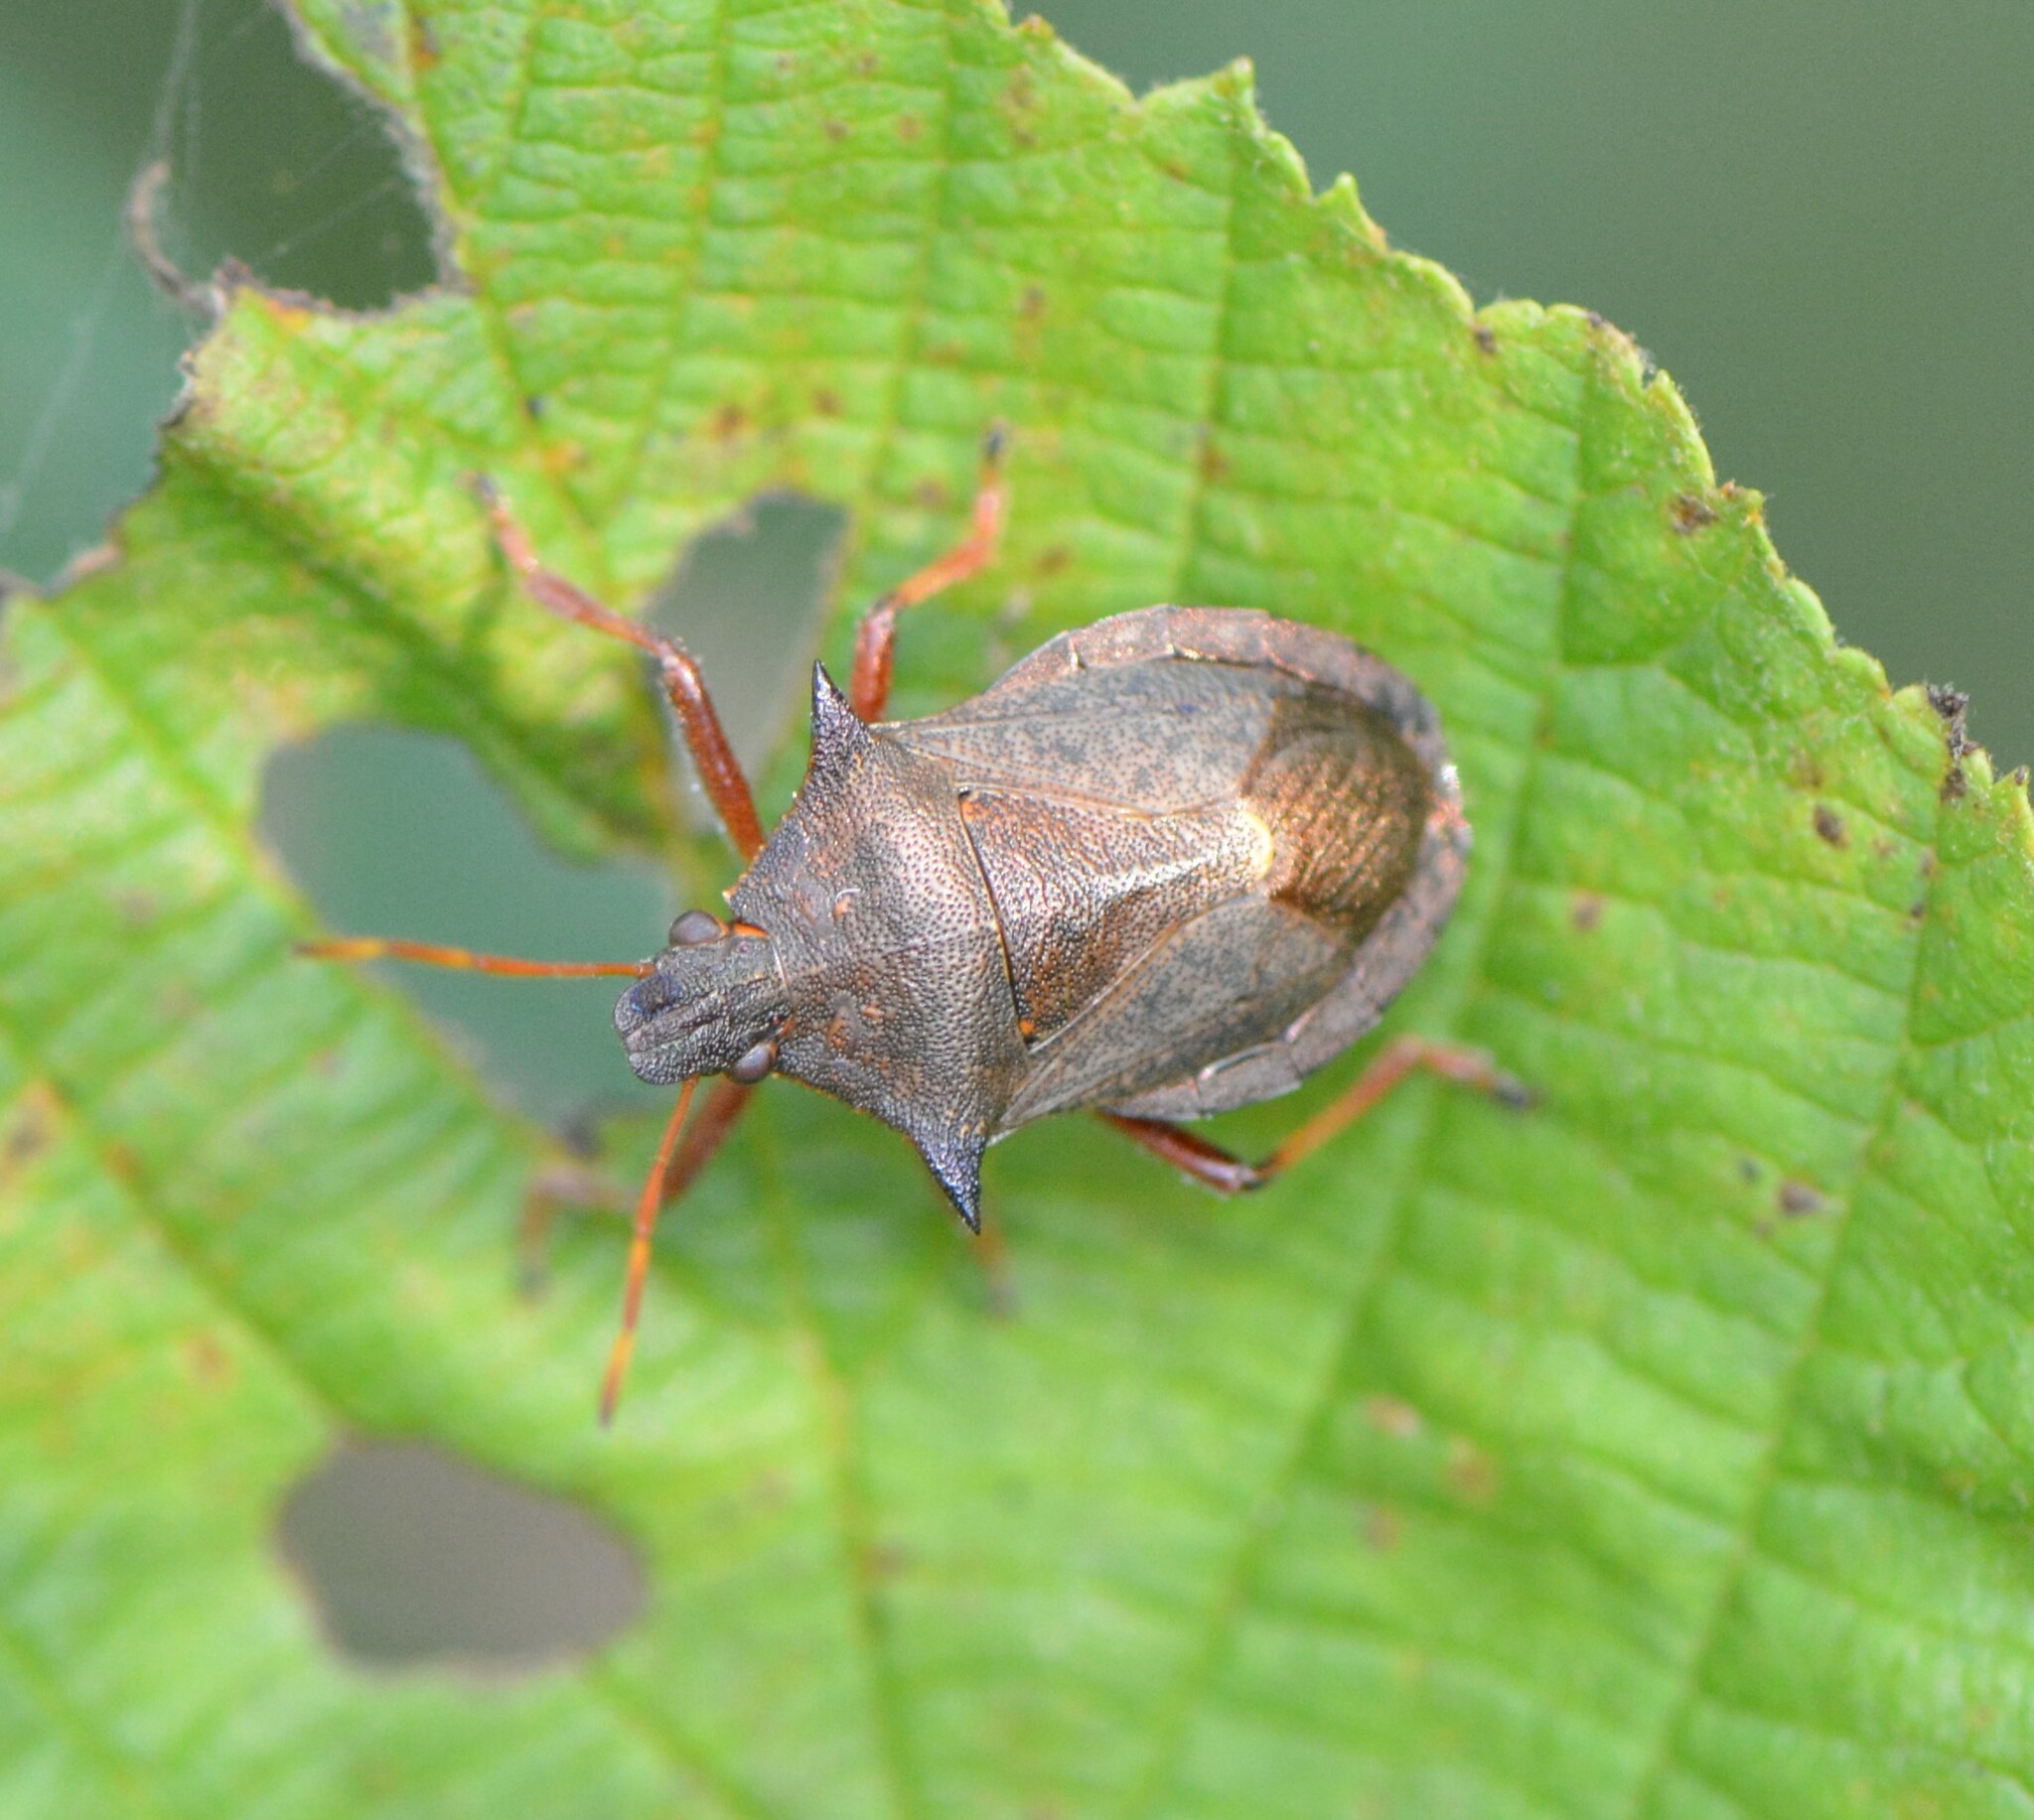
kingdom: Animalia
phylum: Arthropoda
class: Insecta
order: Hemiptera
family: Pentatomidae
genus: Picromerus
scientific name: Picromerus bidens
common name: Spiked shieldbug
